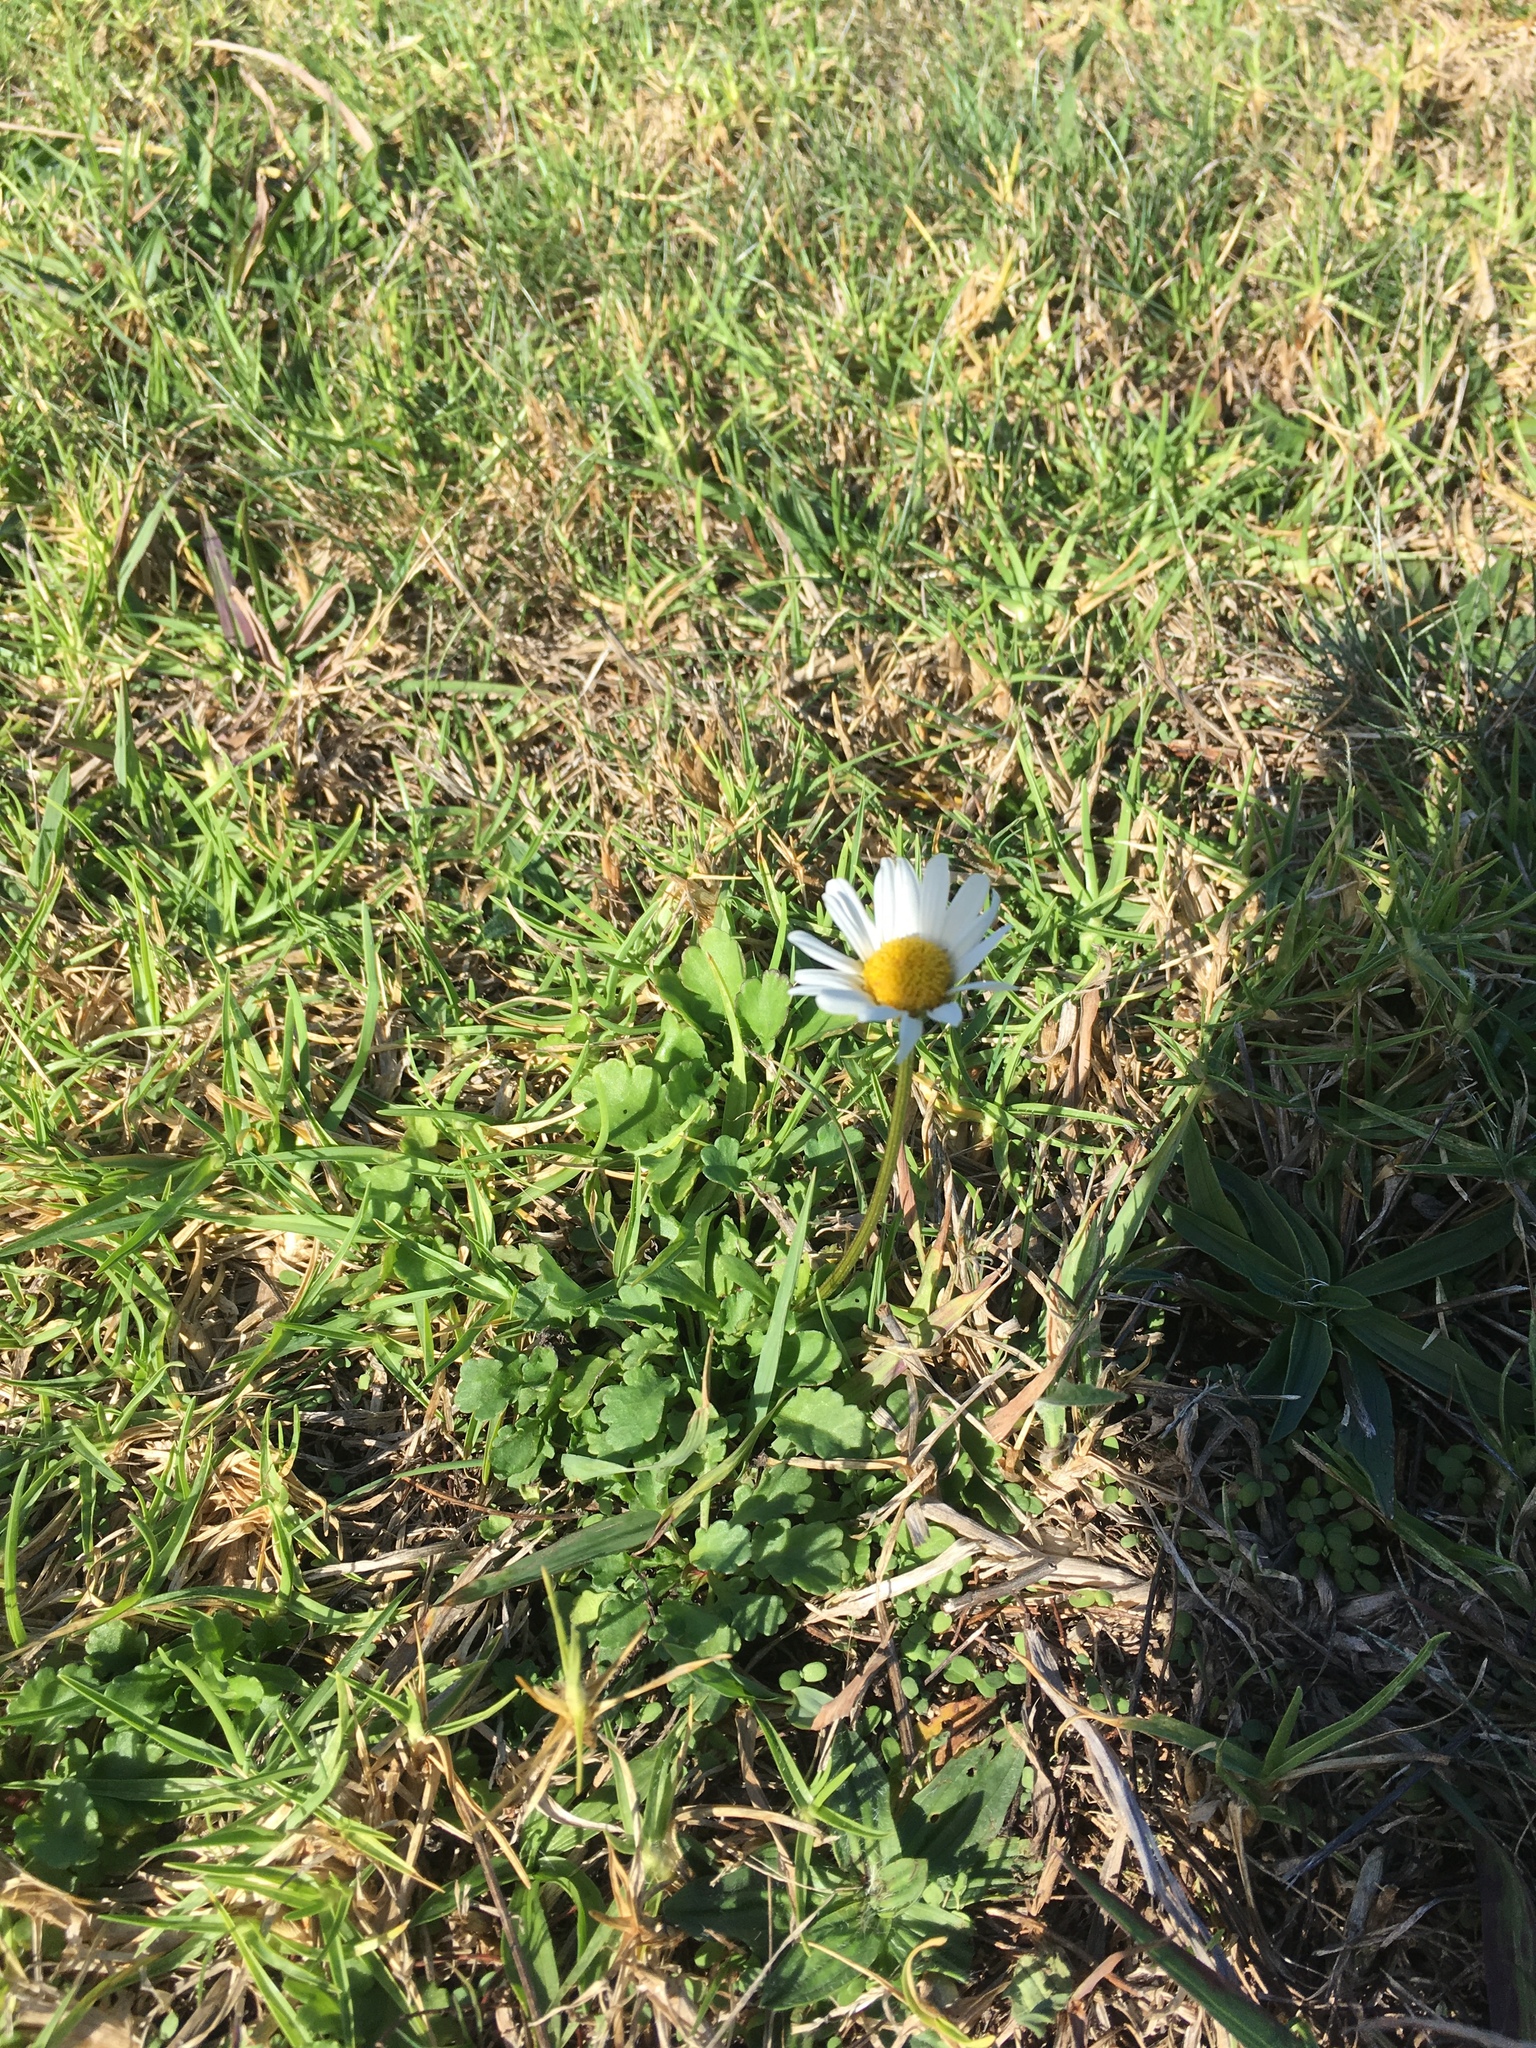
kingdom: Plantae
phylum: Tracheophyta
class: Magnoliopsida
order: Asterales
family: Asteraceae
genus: Leucanthemum
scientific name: Leucanthemum vulgare
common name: Oxeye daisy
